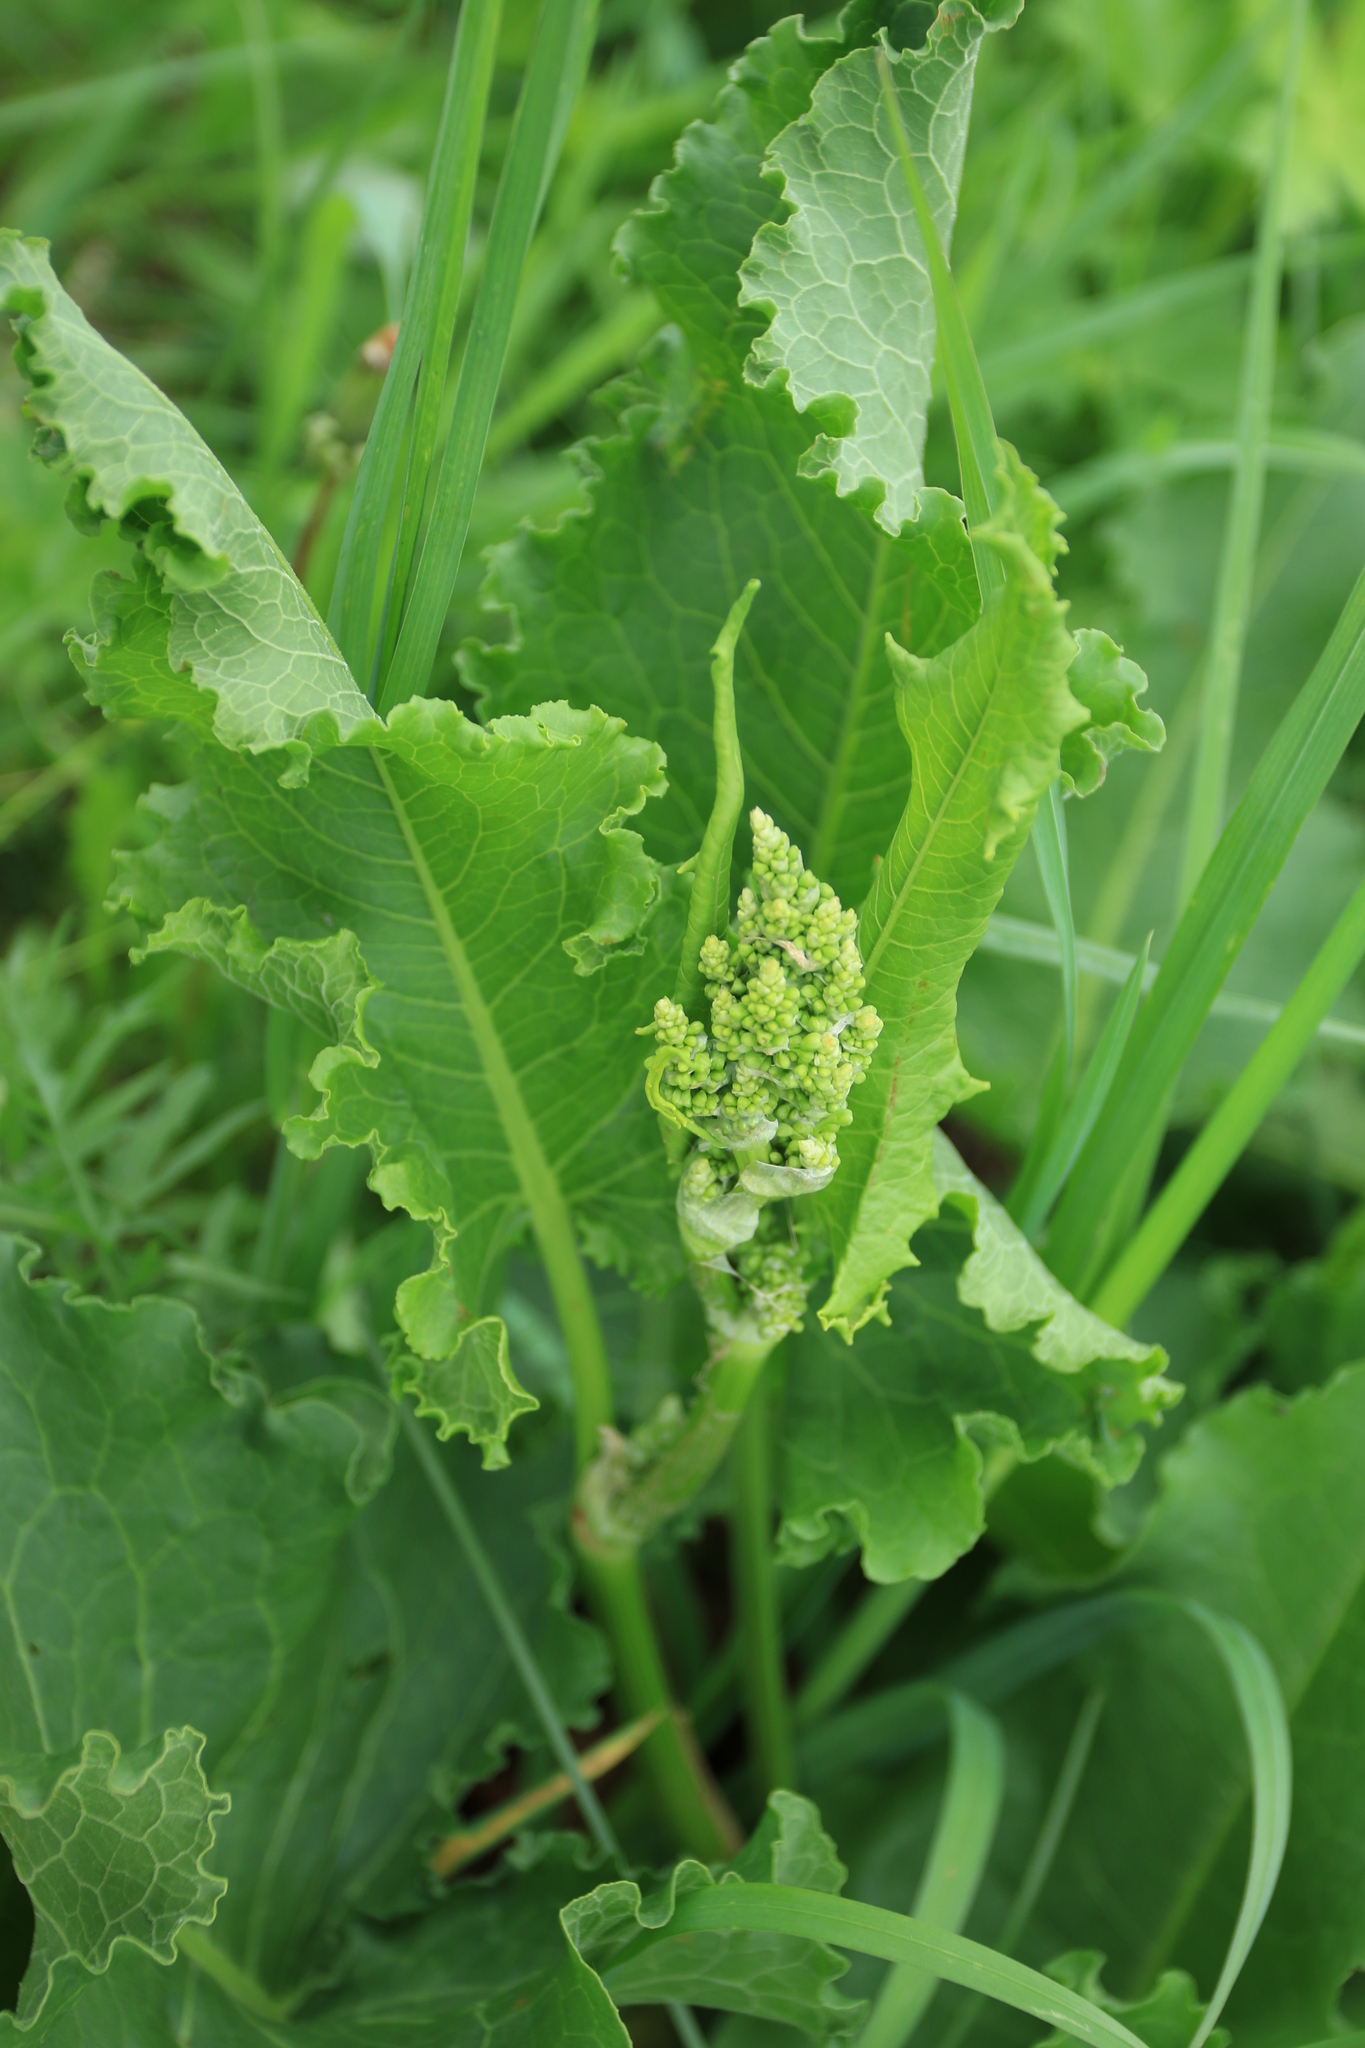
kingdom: Plantae
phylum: Tracheophyta
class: Magnoliopsida
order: Caryophyllales
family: Polygonaceae
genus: Rumex
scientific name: Rumex confertus
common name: Russian dock
